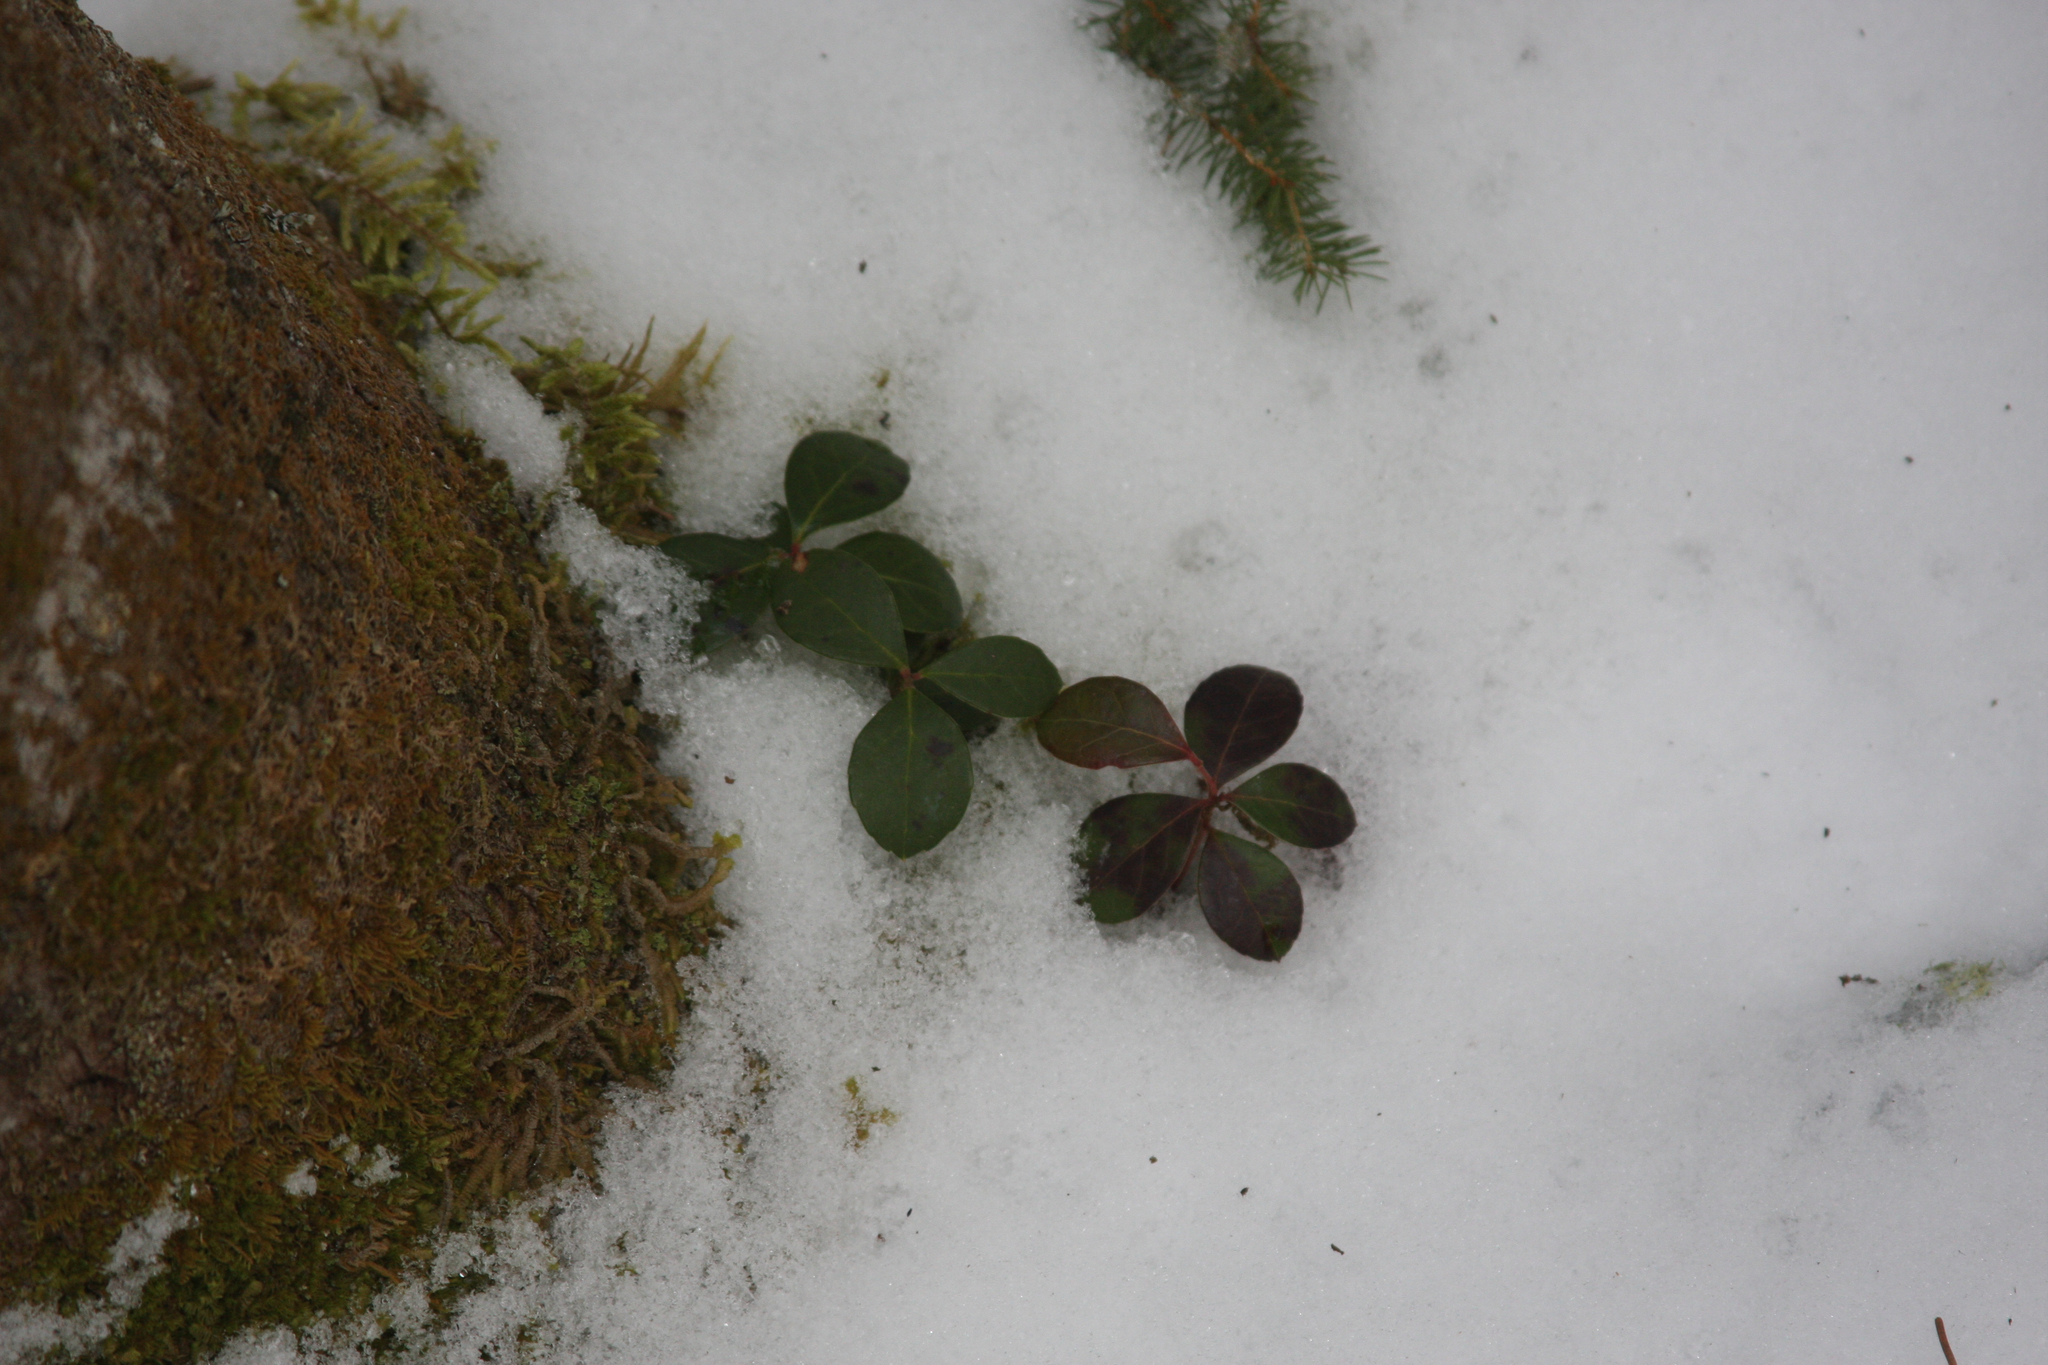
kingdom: Plantae
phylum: Tracheophyta
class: Magnoliopsida
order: Ericales
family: Ericaceae
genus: Gaultheria
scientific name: Gaultheria procumbens
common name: Checkerberry
